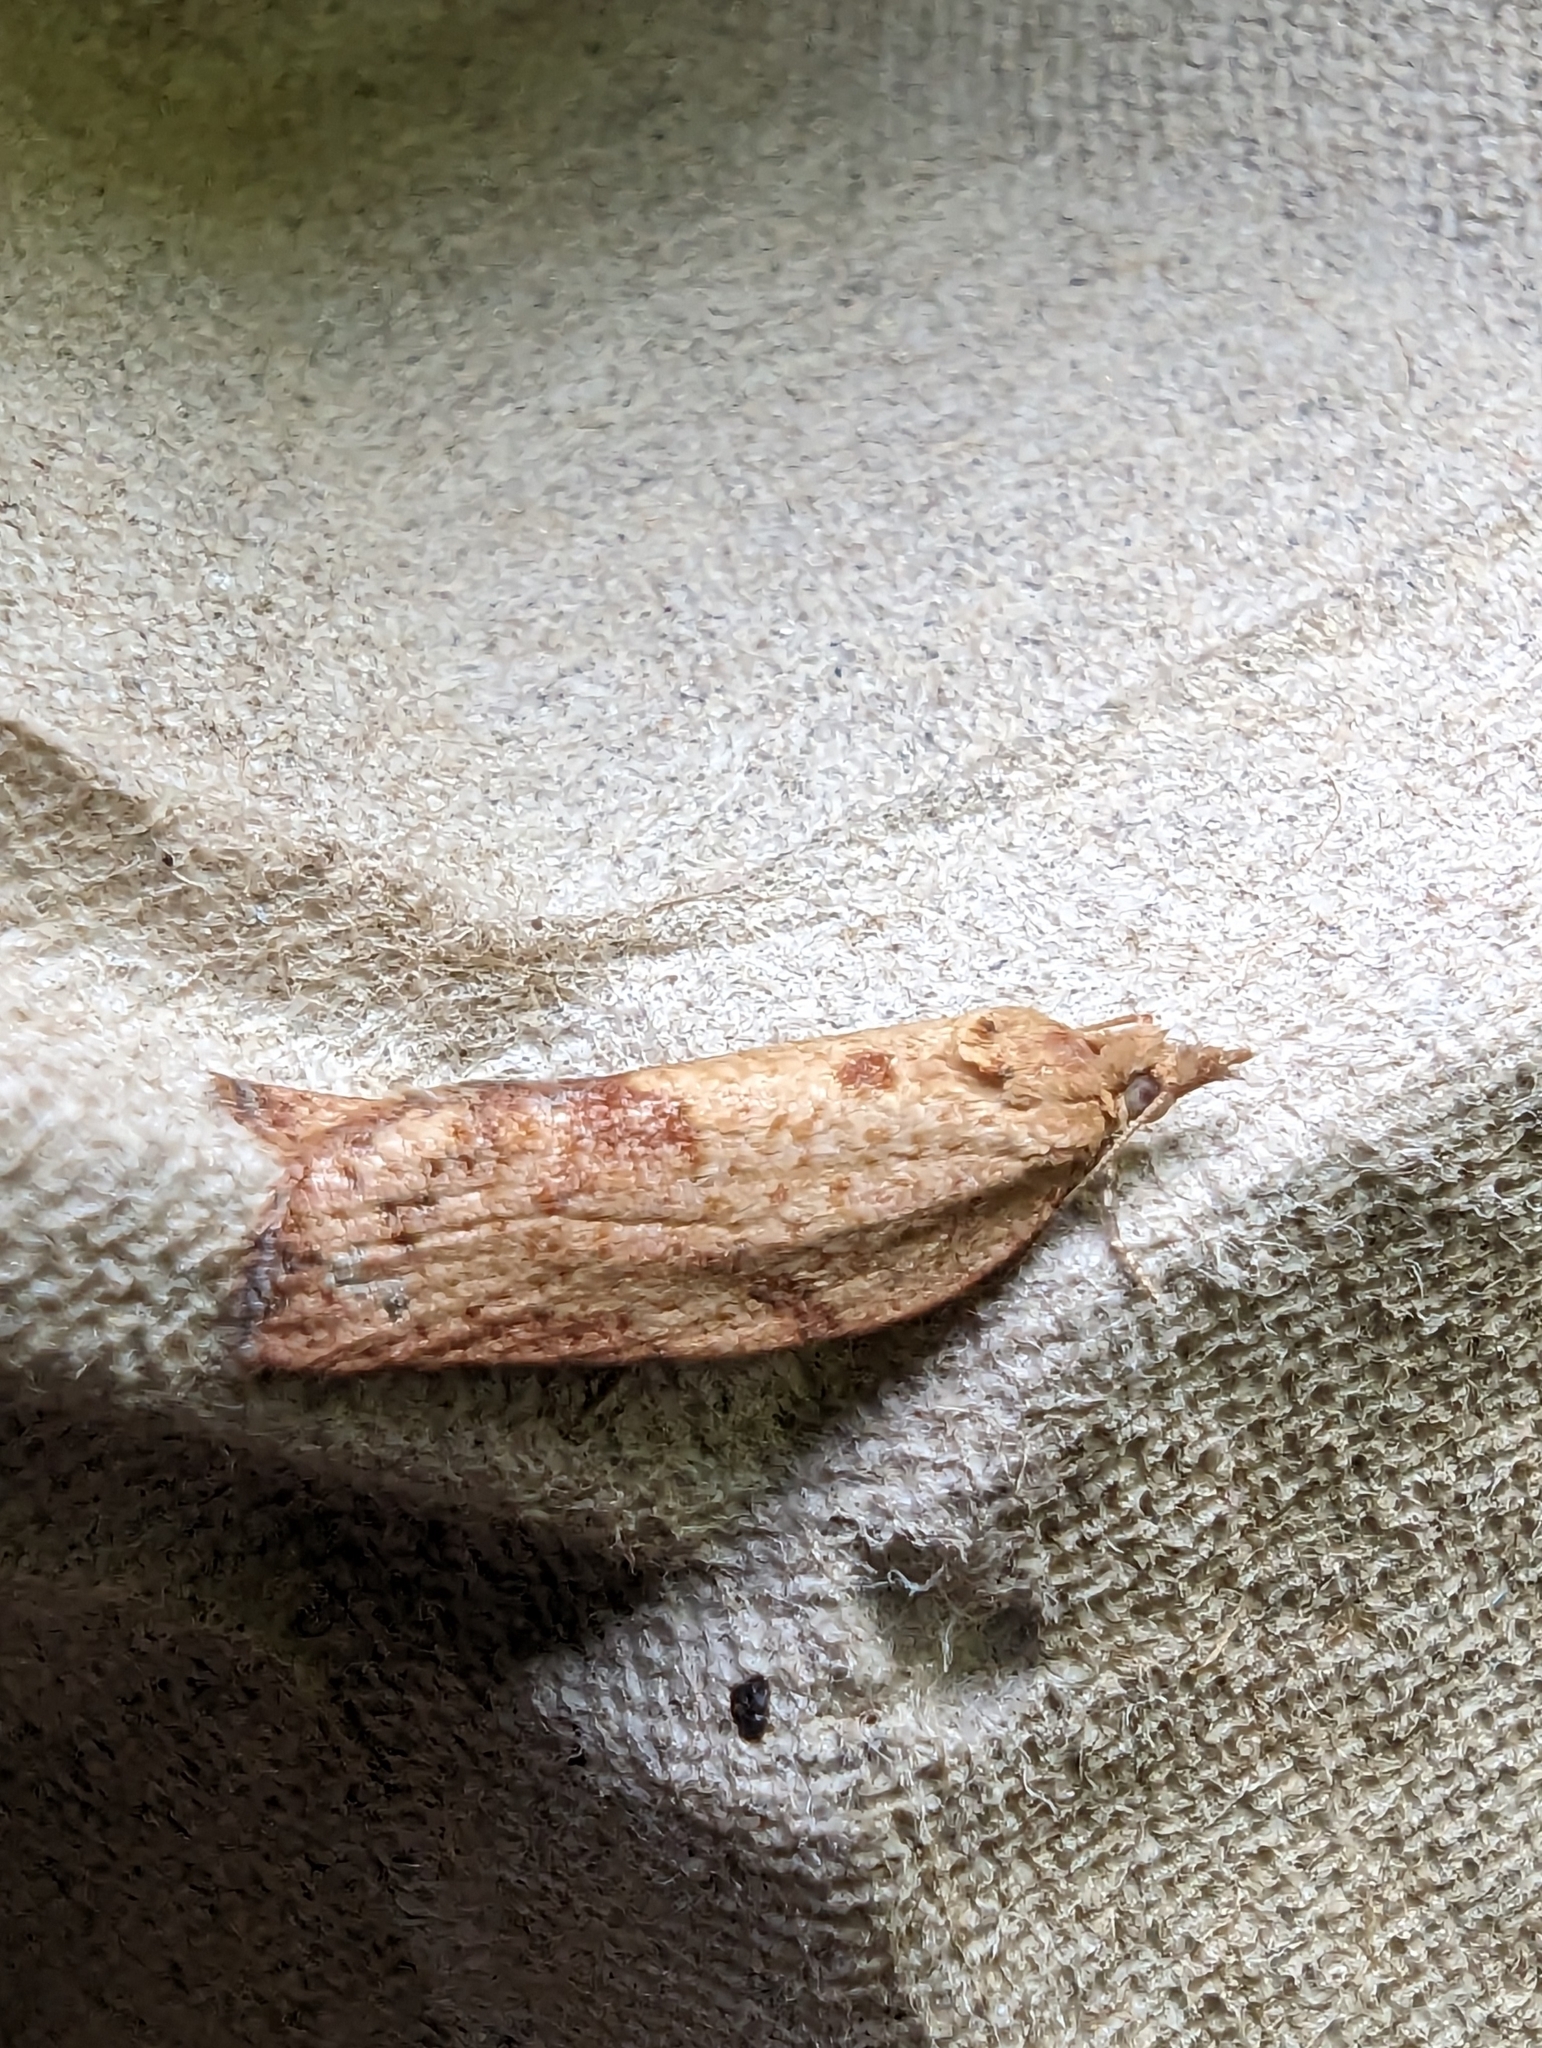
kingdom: Animalia
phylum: Arthropoda
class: Insecta
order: Lepidoptera
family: Tortricidae
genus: Epiphyas
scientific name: Epiphyas postvittana
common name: Light brown apple moth
